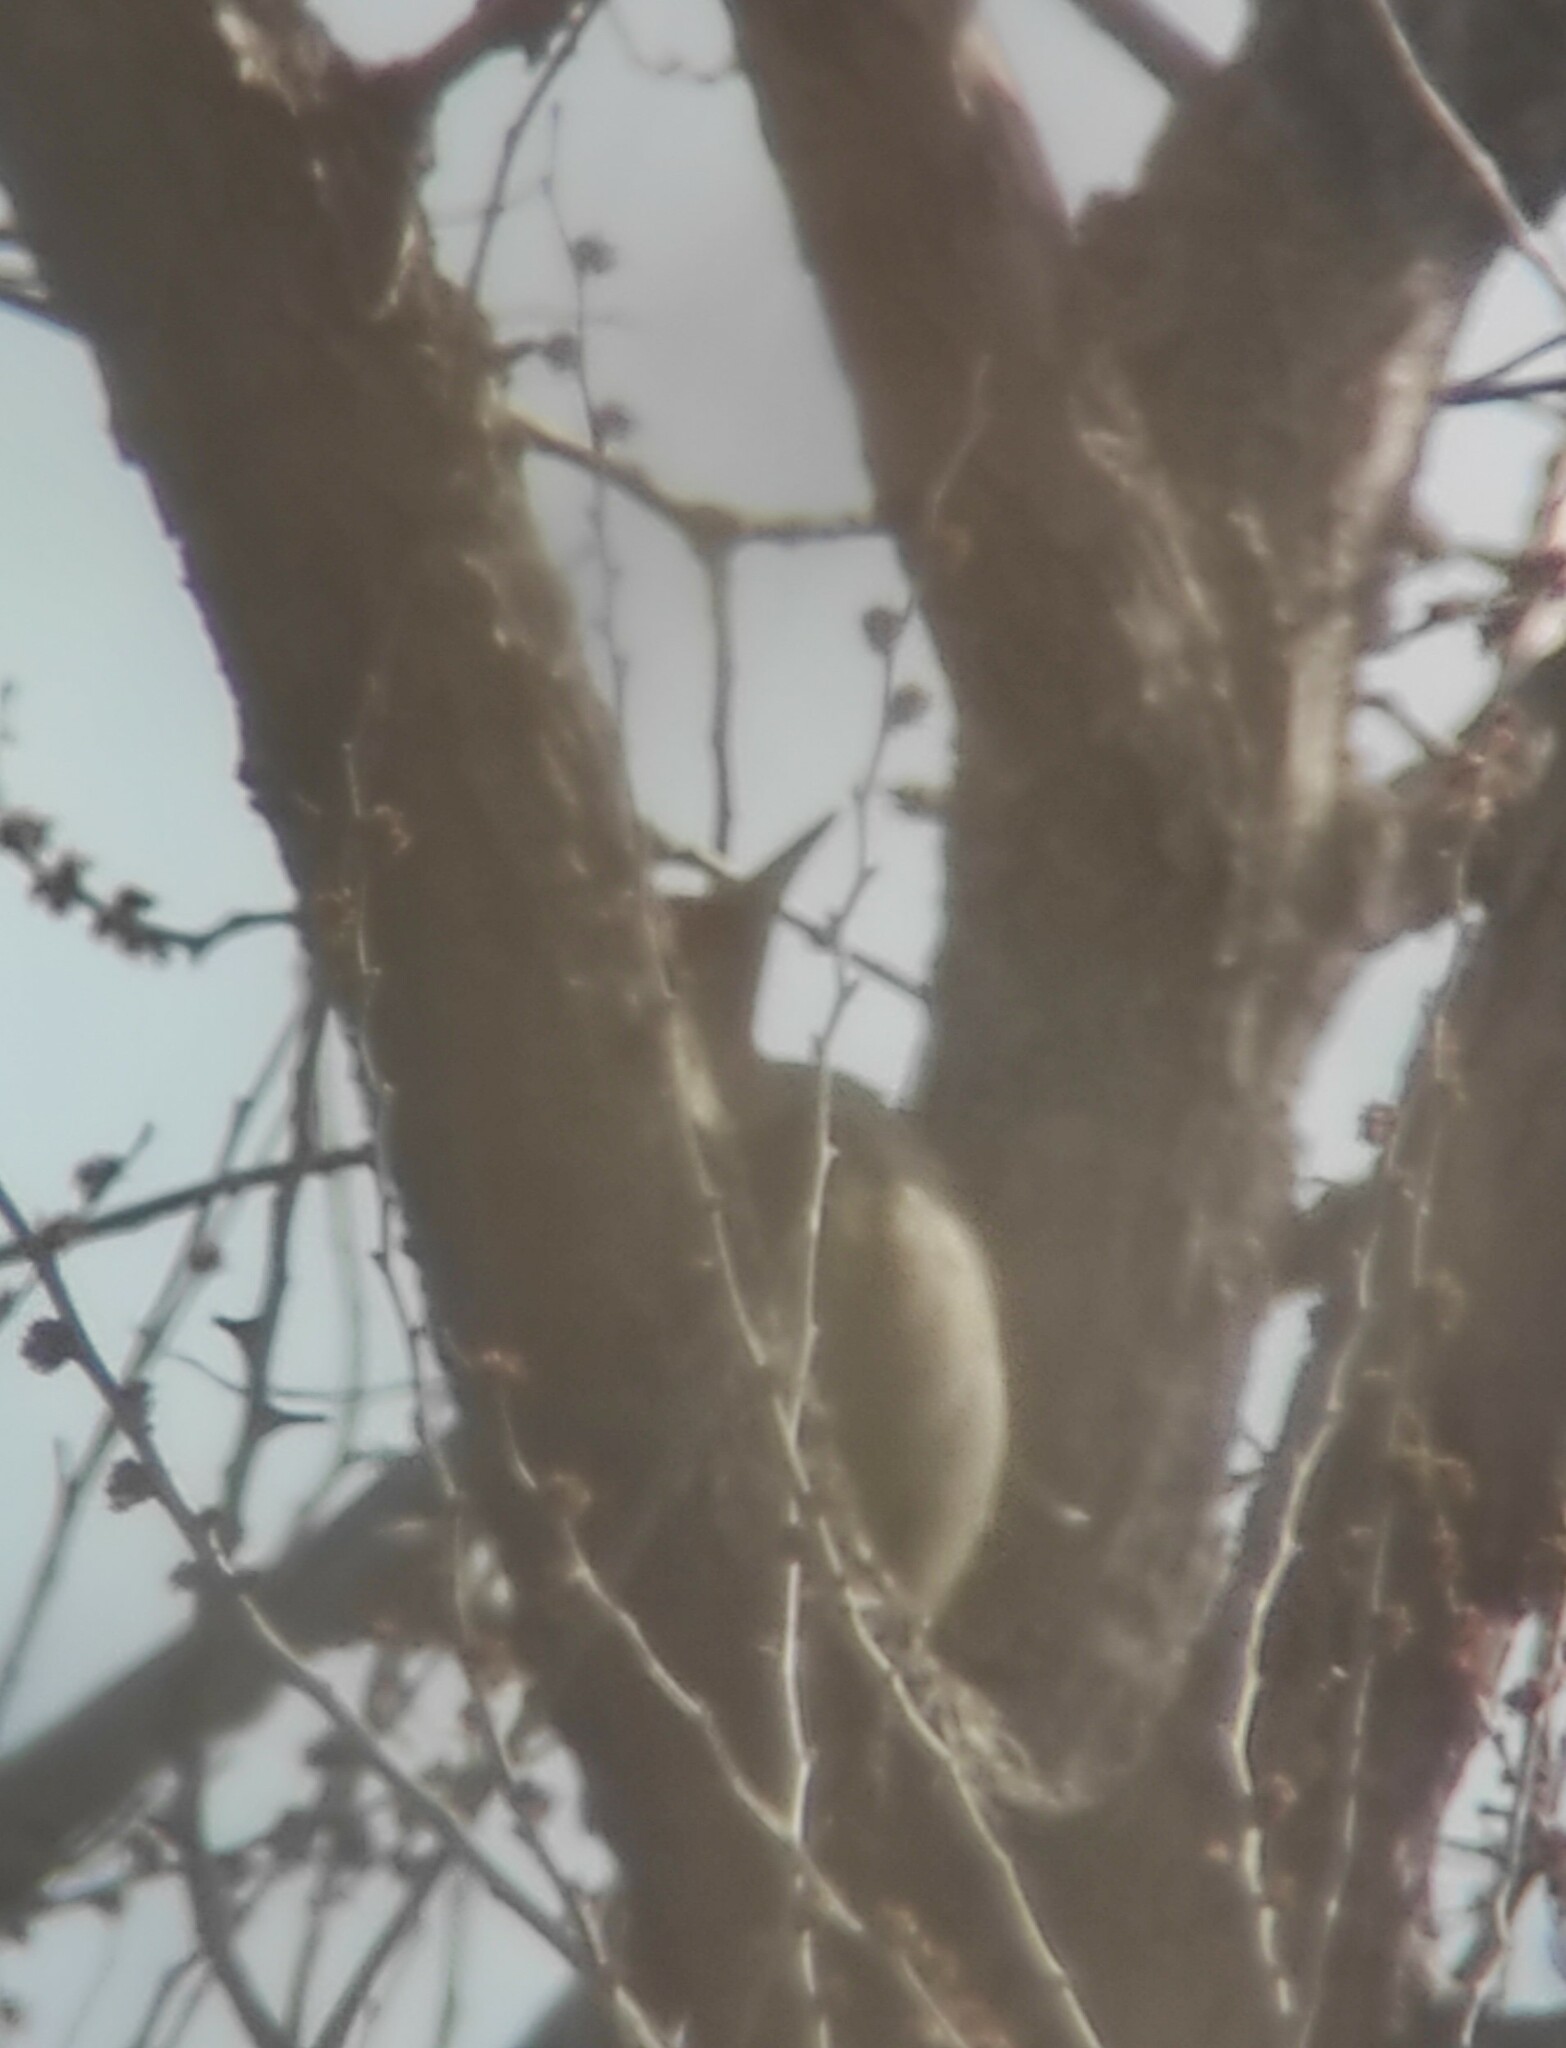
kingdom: Animalia
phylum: Chordata
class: Aves
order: Piciformes
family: Picidae
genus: Picus
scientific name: Picus sharpei
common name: Iberian green woodpecker
